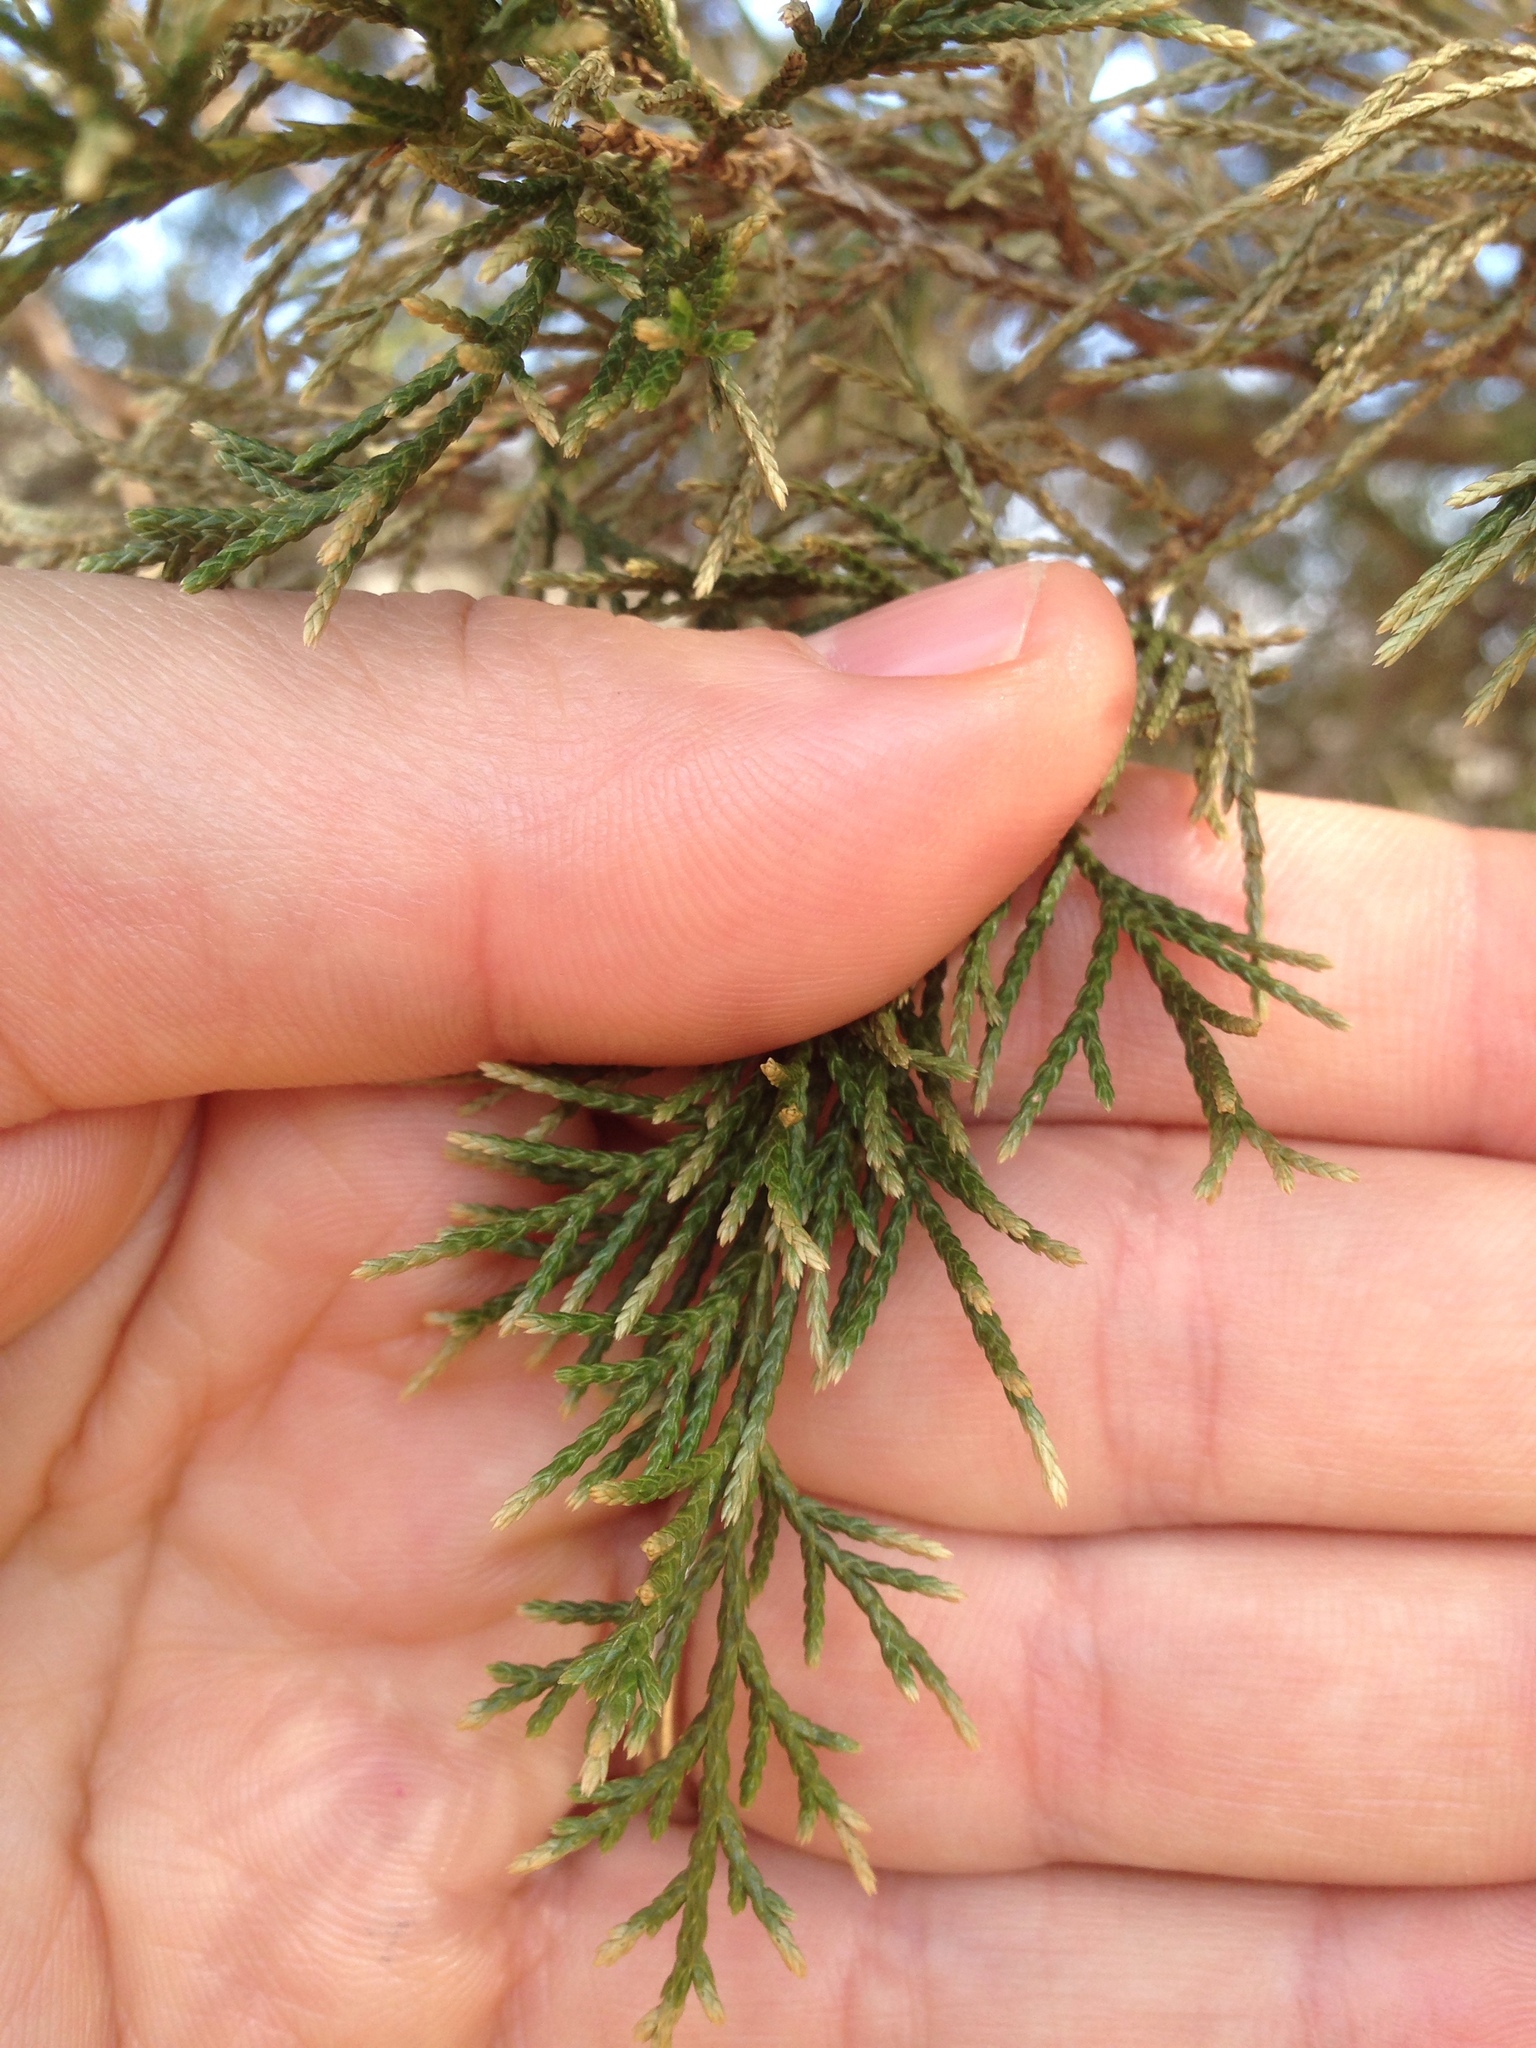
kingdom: Plantae
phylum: Tracheophyta
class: Pinopsida
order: Pinales
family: Cupressaceae
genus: Juniperus
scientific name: Juniperus virginiana
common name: Red juniper
